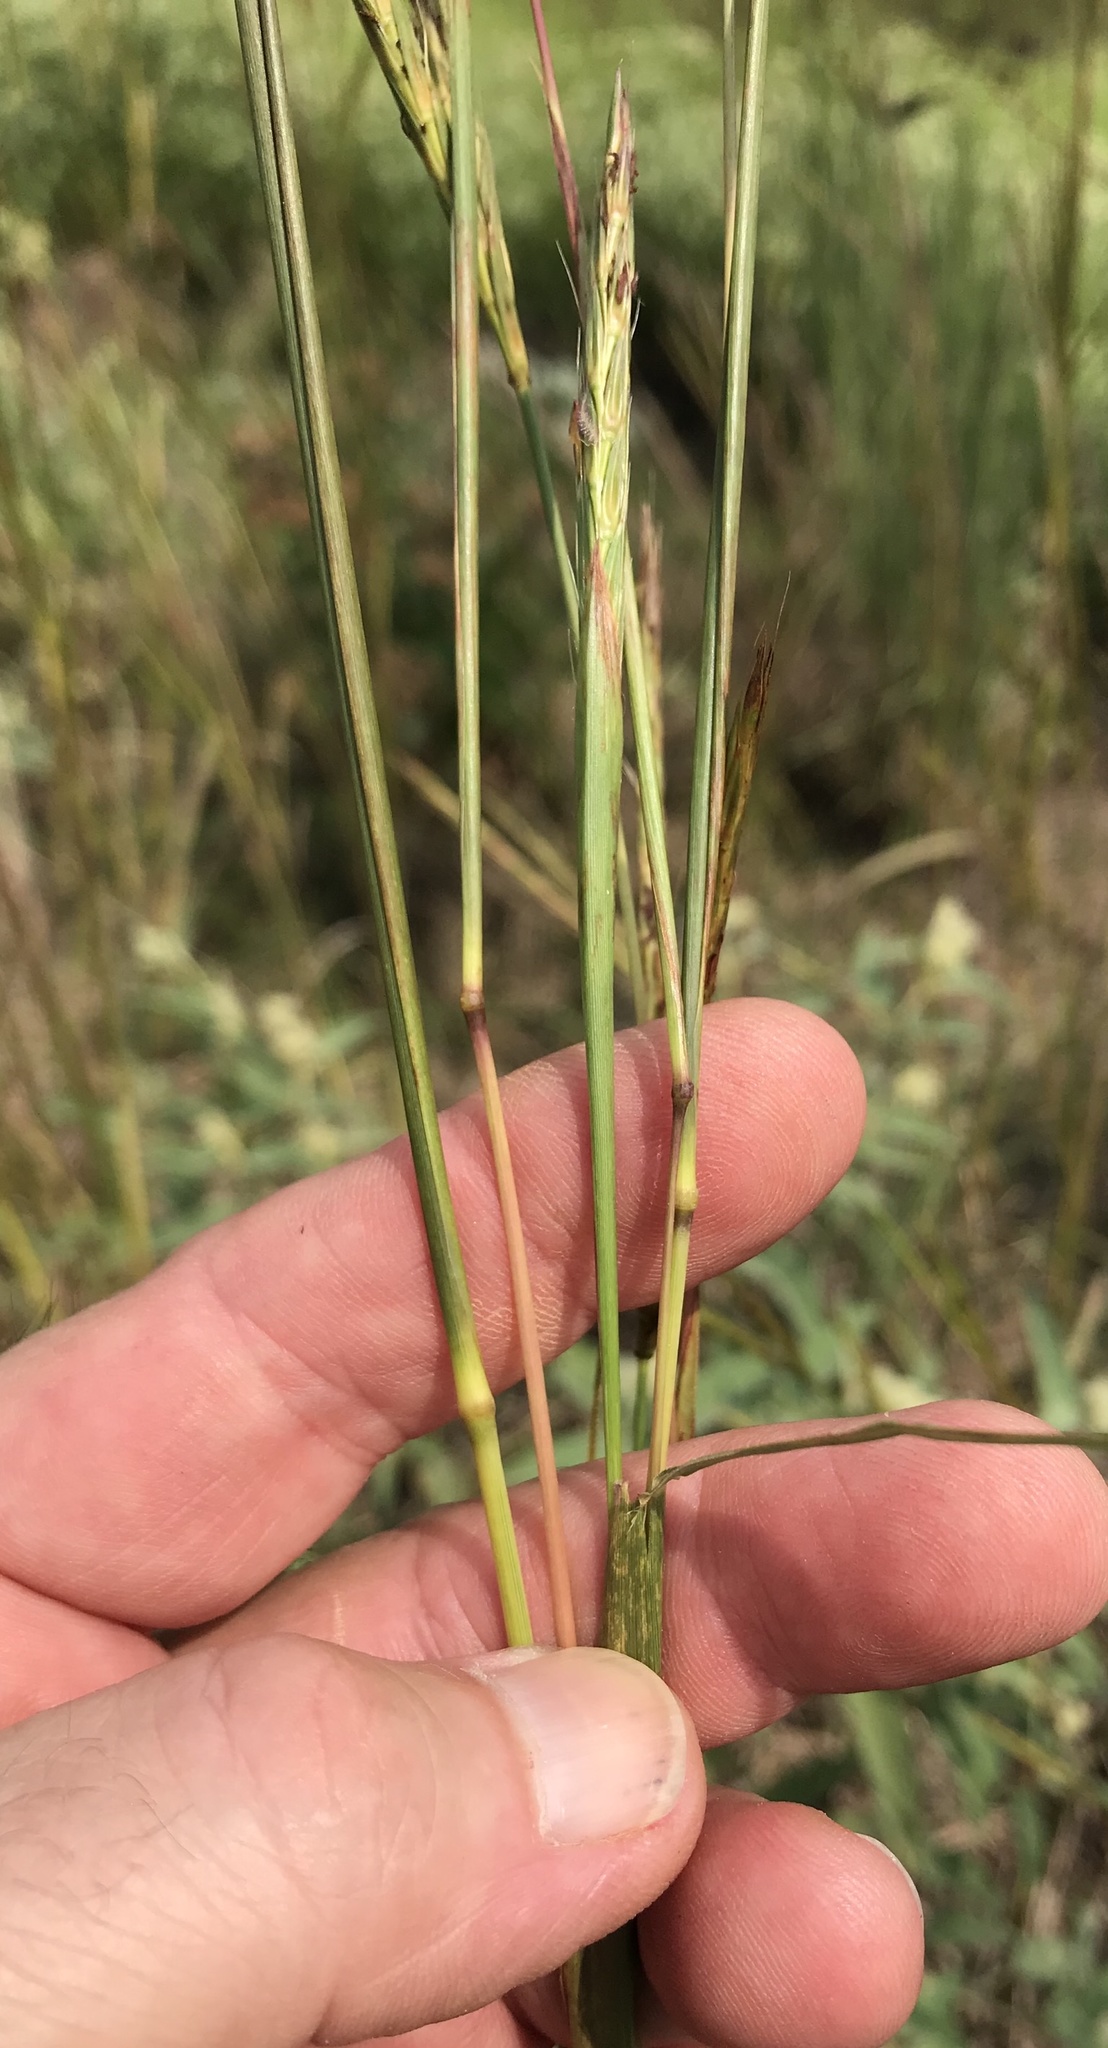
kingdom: Plantae
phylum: Tracheophyta
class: Liliopsida
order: Poales
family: Poaceae
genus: Andropogon
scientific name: Andropogon gerardi
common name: Big bluestem
